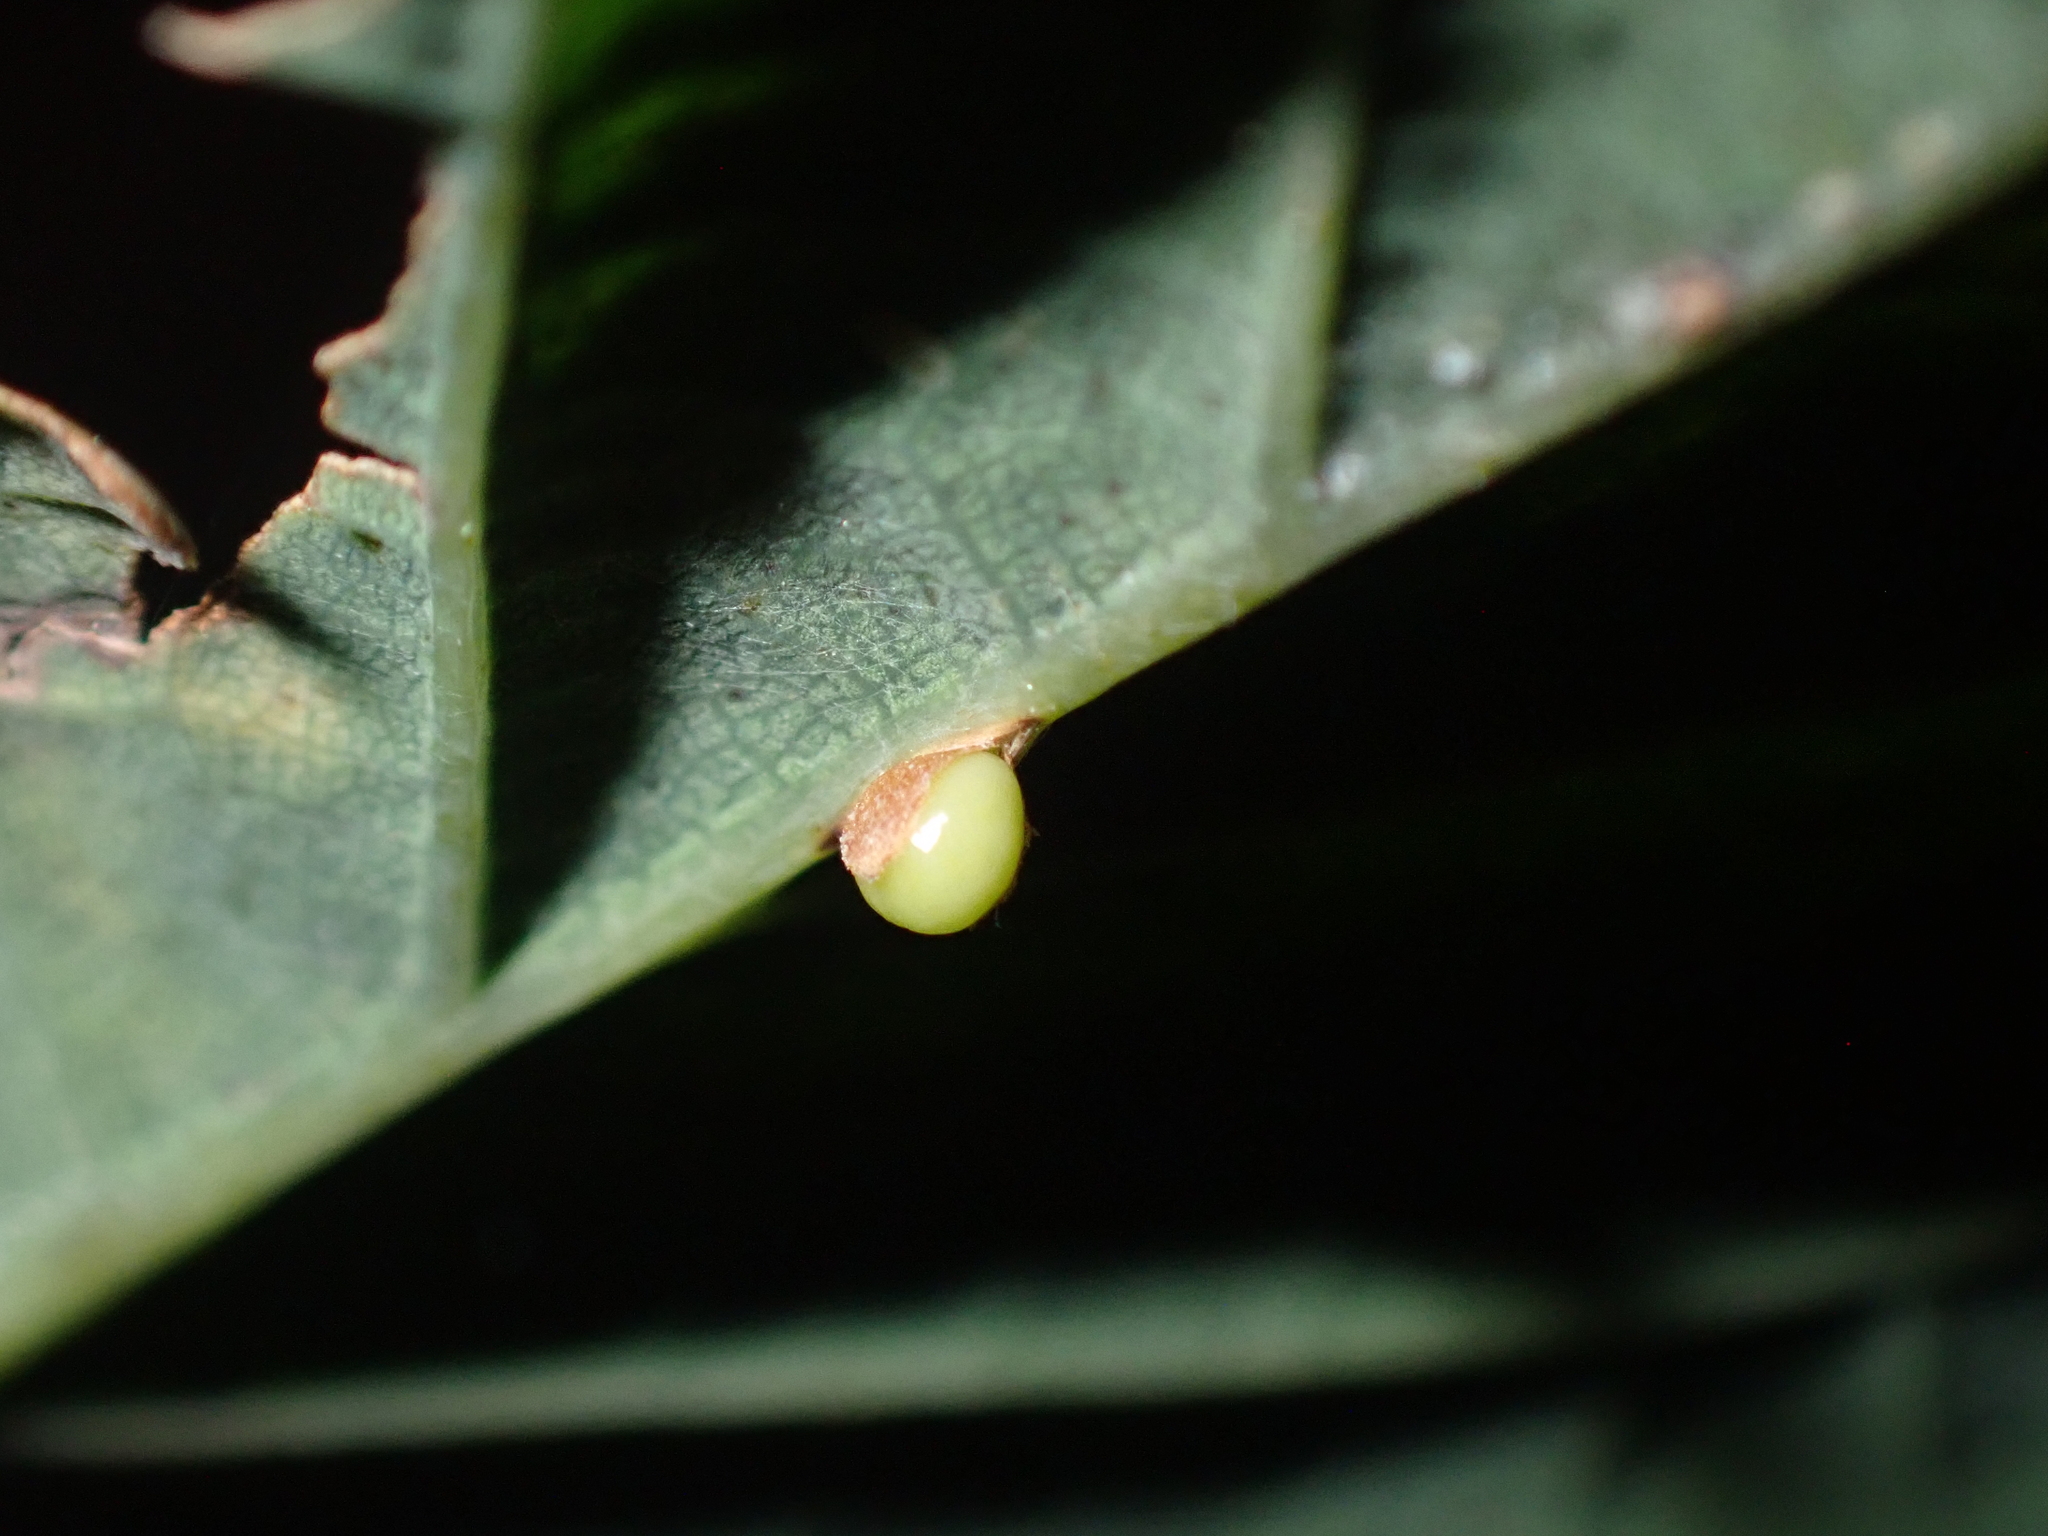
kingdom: Animalia
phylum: Arthropoda
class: Insecta
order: Hymenoptera
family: Cynipidae
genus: Neuroterus
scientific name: Neuroterus anthracinus
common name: Oyster gall
